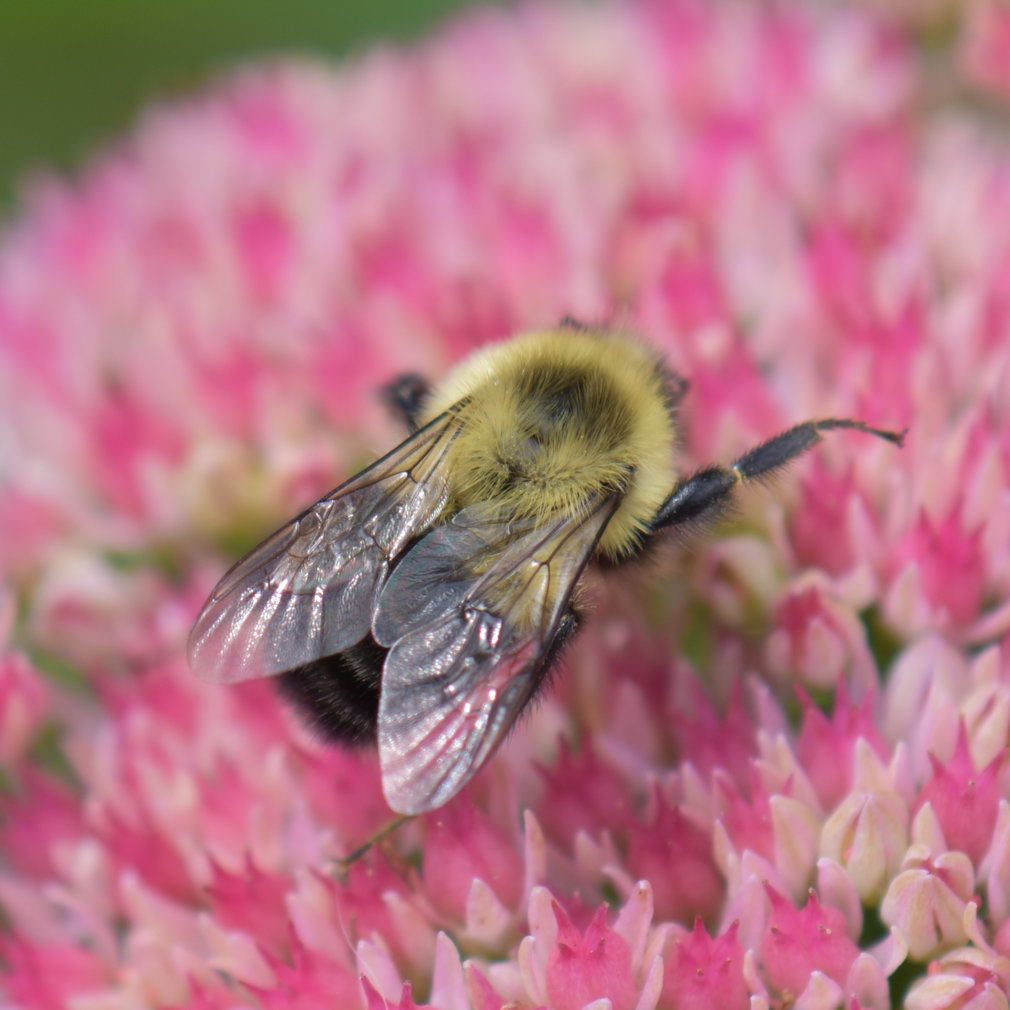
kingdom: Animalia
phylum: Arthropoda
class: Insecta
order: Hymenoptera
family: Apidae
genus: Bombus
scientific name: Bombus impatiens
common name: Common eastern bumble bee
